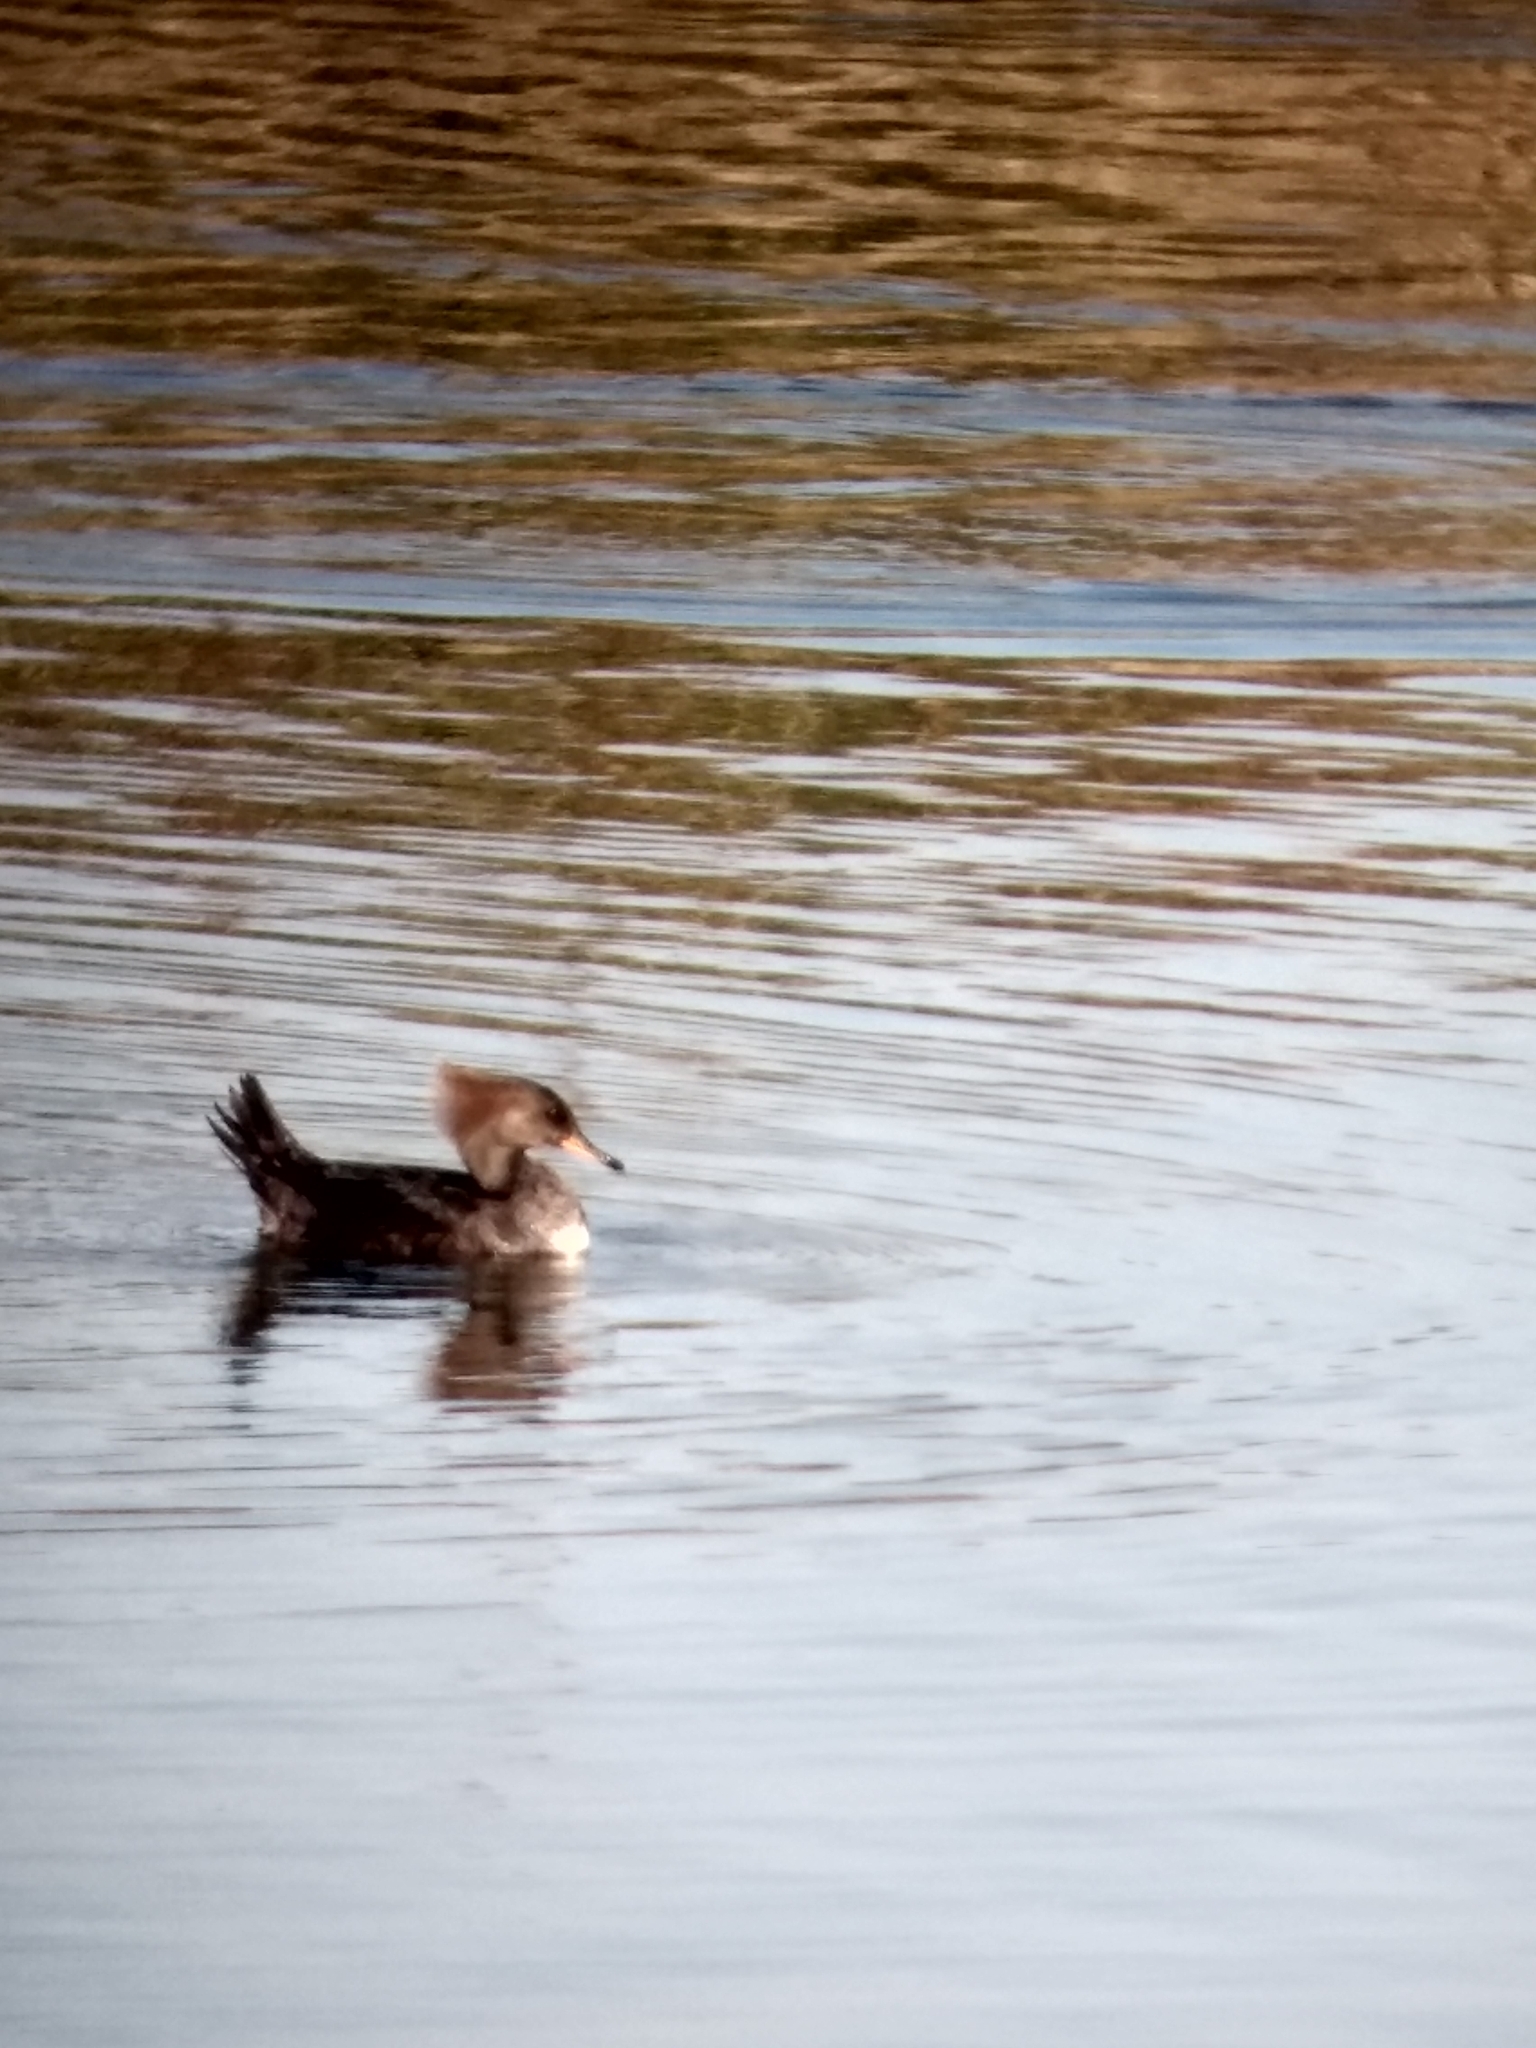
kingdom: Animalia
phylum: Chordata
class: Aves
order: Anseriformes
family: Anatidae
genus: Lophodytes
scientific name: Lophodytes cucullatus
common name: Hooded merganser
